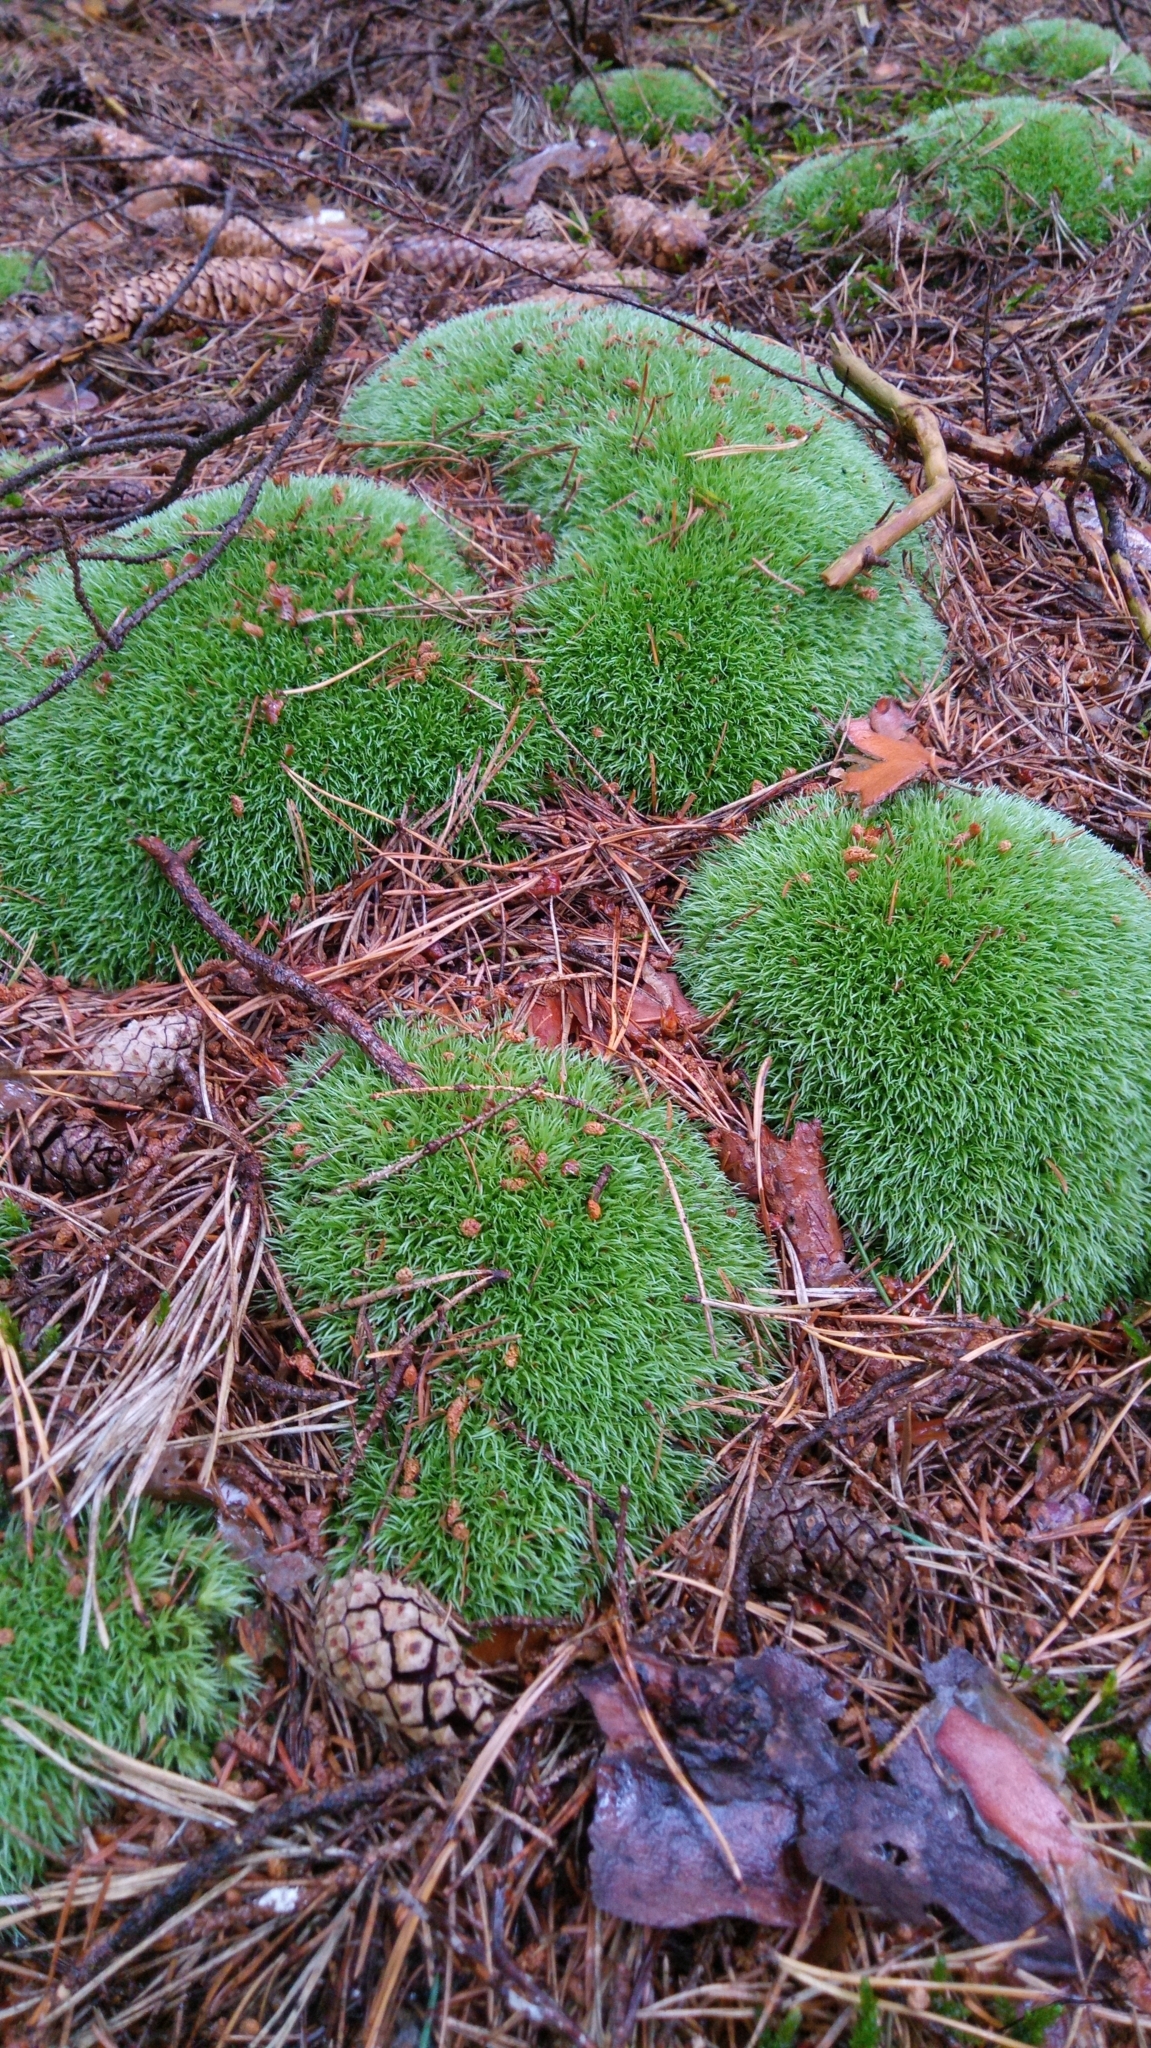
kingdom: Plantae
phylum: Bryophyta
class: Bryopsida
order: Dicranales
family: Leucobryaceae
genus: Leucobryum
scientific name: Leucobryum glaucum
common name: Large white-moss
